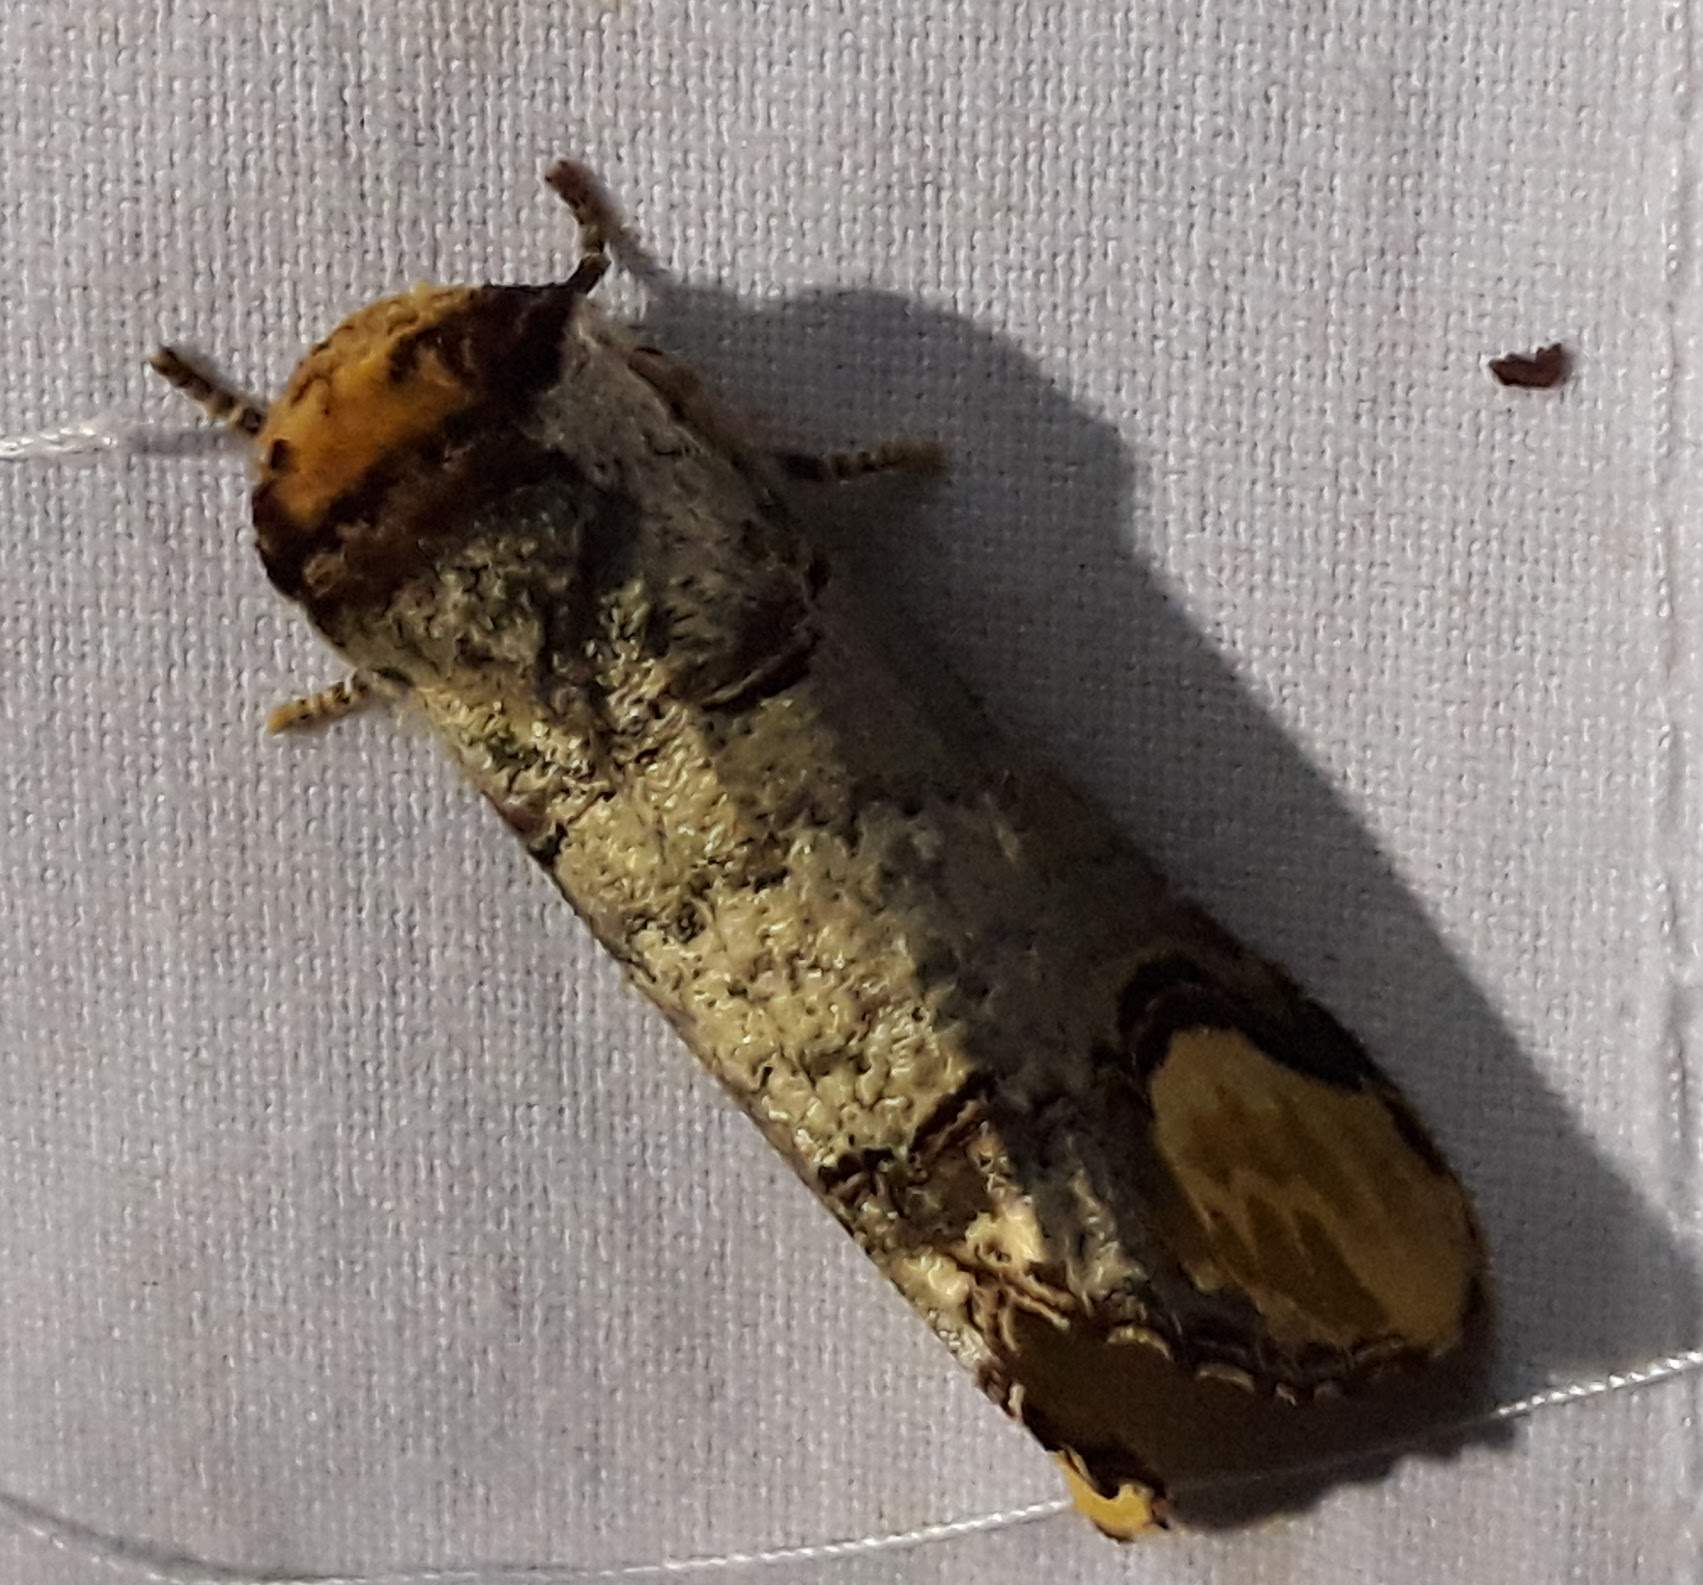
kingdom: Animalia
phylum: Arthropoda
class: Insecta
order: Lepidoptera
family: Notodontidae
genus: Phalera
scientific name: Phalera bucephala
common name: Buff-tip
